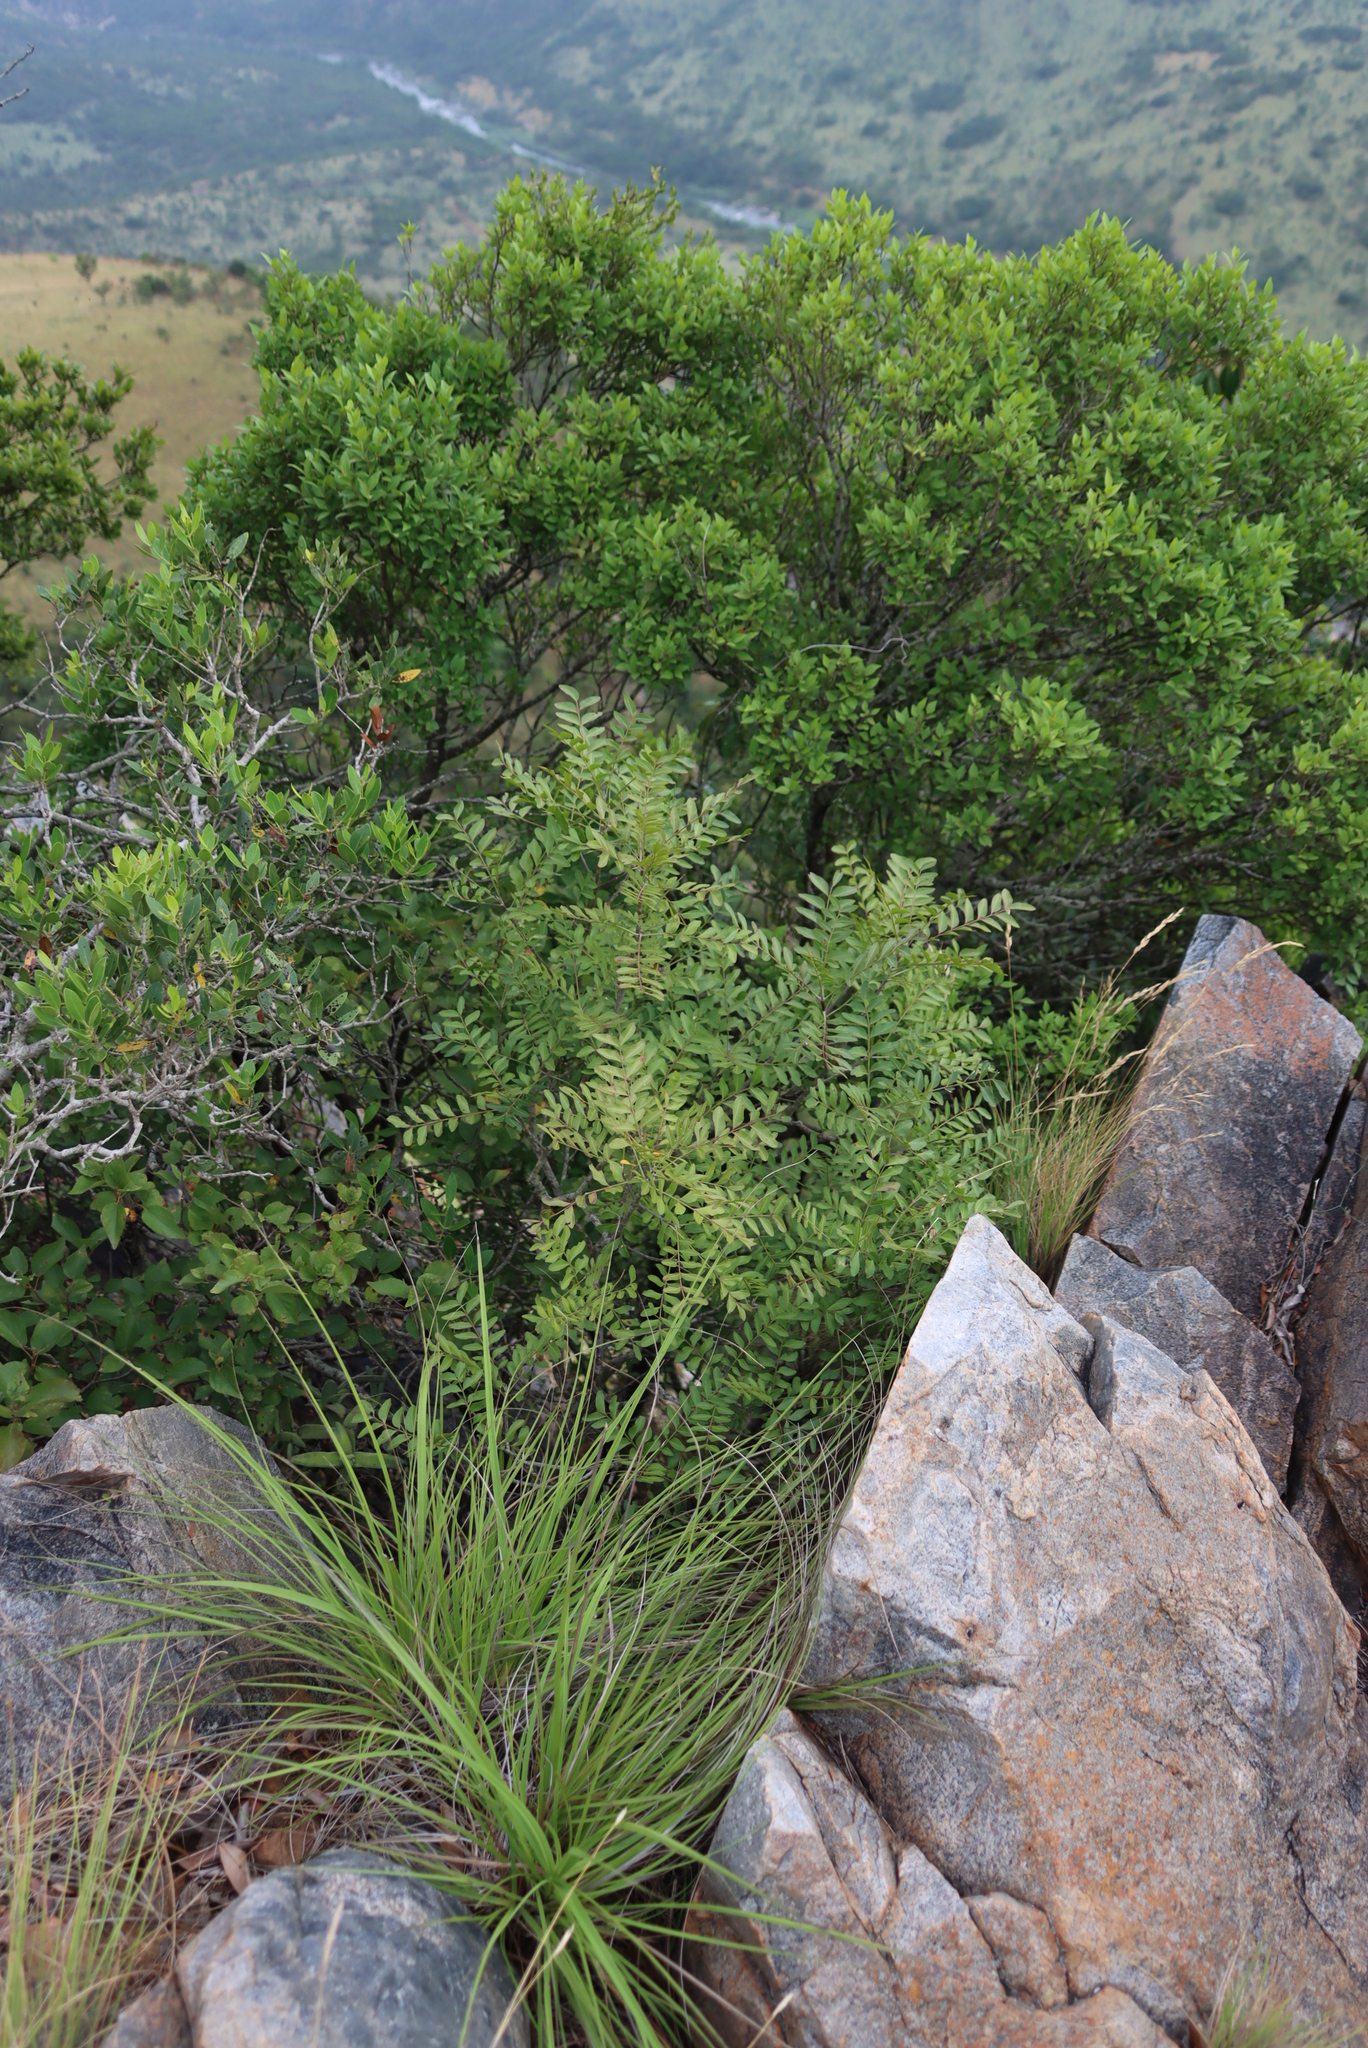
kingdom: Plantae
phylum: Tracheophyta
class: Magnoliopsida
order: Lamiales
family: Oleaceae
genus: Olea
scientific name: Olea capensis
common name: Black ironwood
